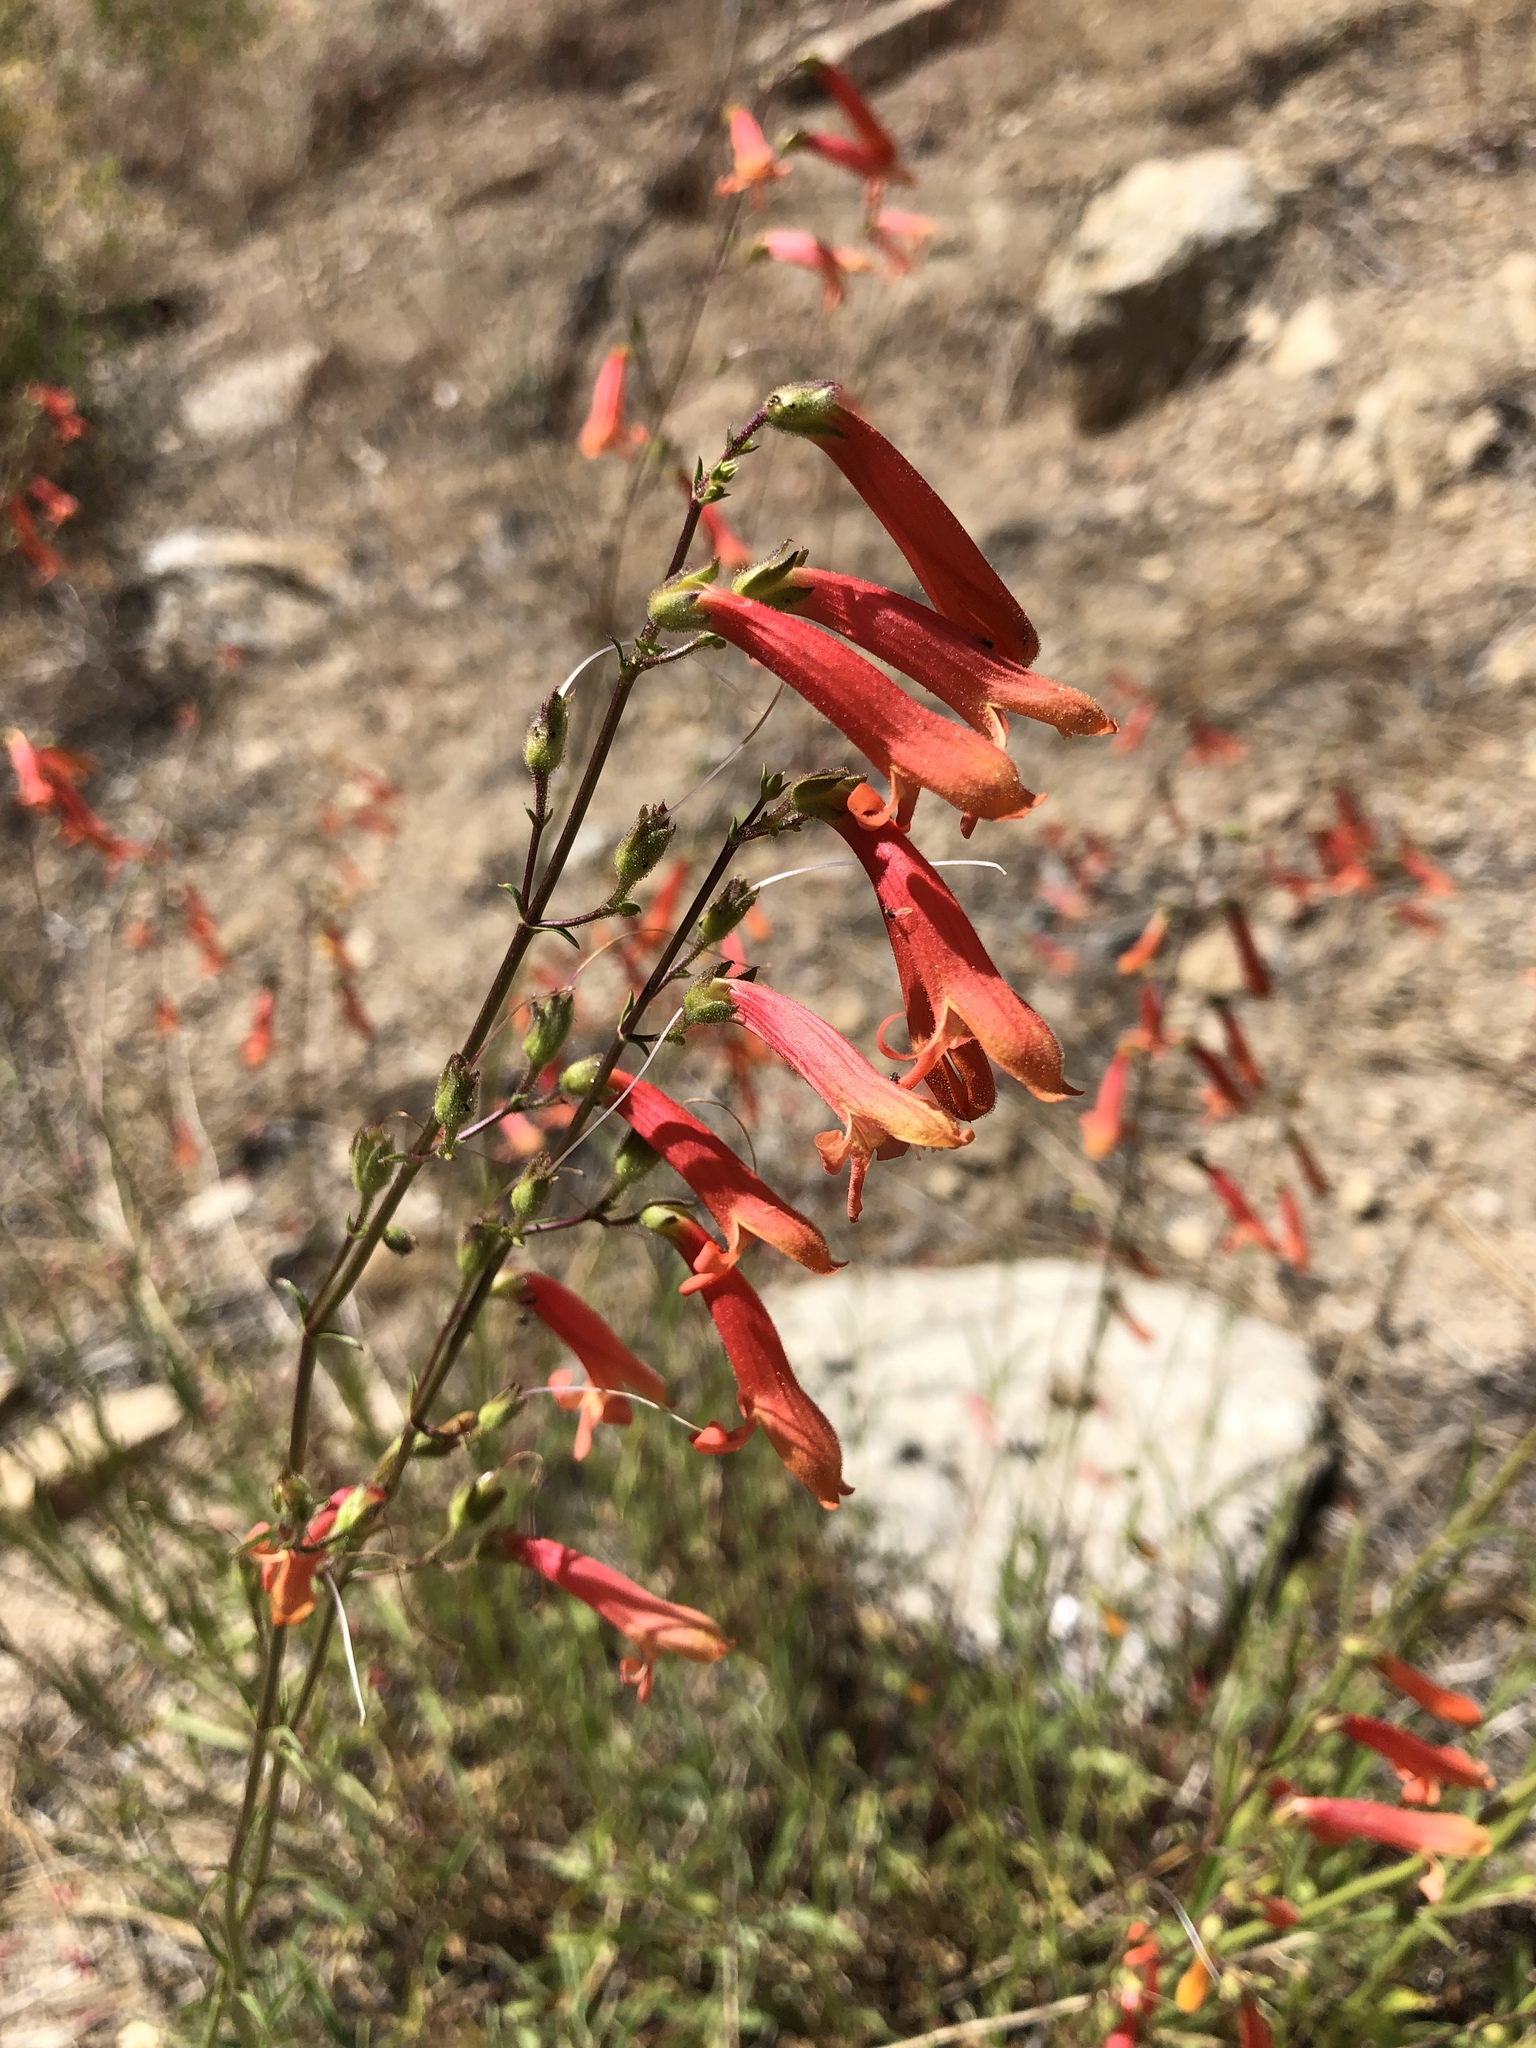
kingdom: Plantae
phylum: Tracheophyta
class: Magnoliopsida
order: Lamiales
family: Plantaginaceae
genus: Penstemon
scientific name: Penstemon rostriflorus
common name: Bridges's penstemon
